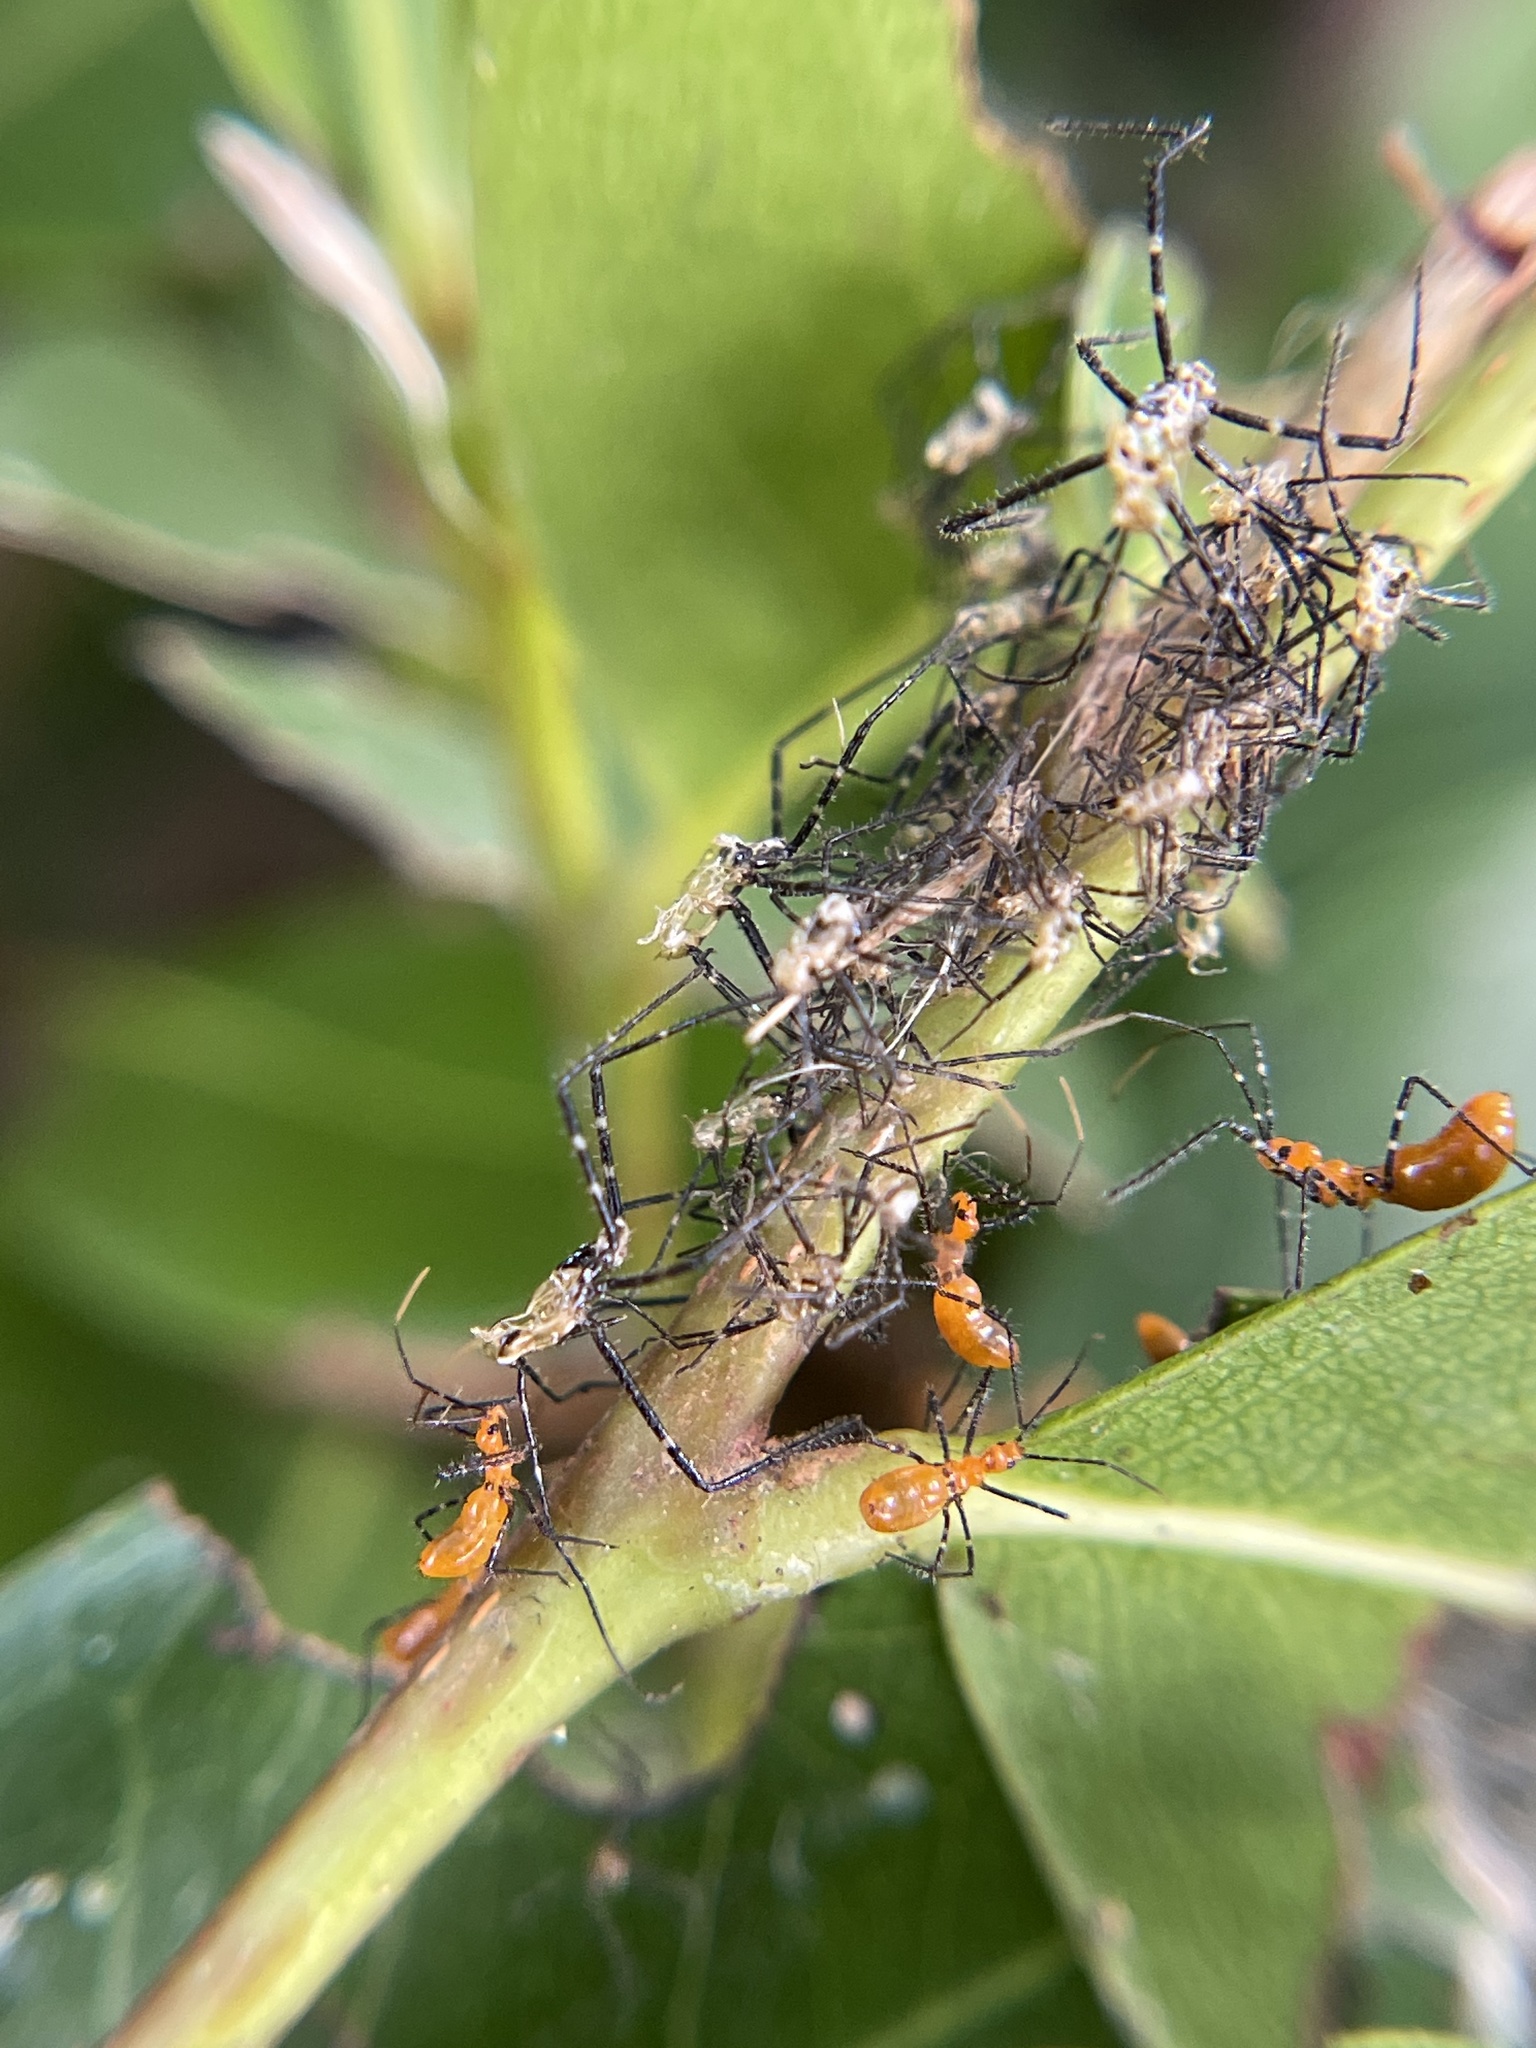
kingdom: Animalia
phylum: Arthropoda
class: Insecta
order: Hemiptera
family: Reduviidae
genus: Zelus
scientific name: Zelus longipes
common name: Milkweed assassin bug
